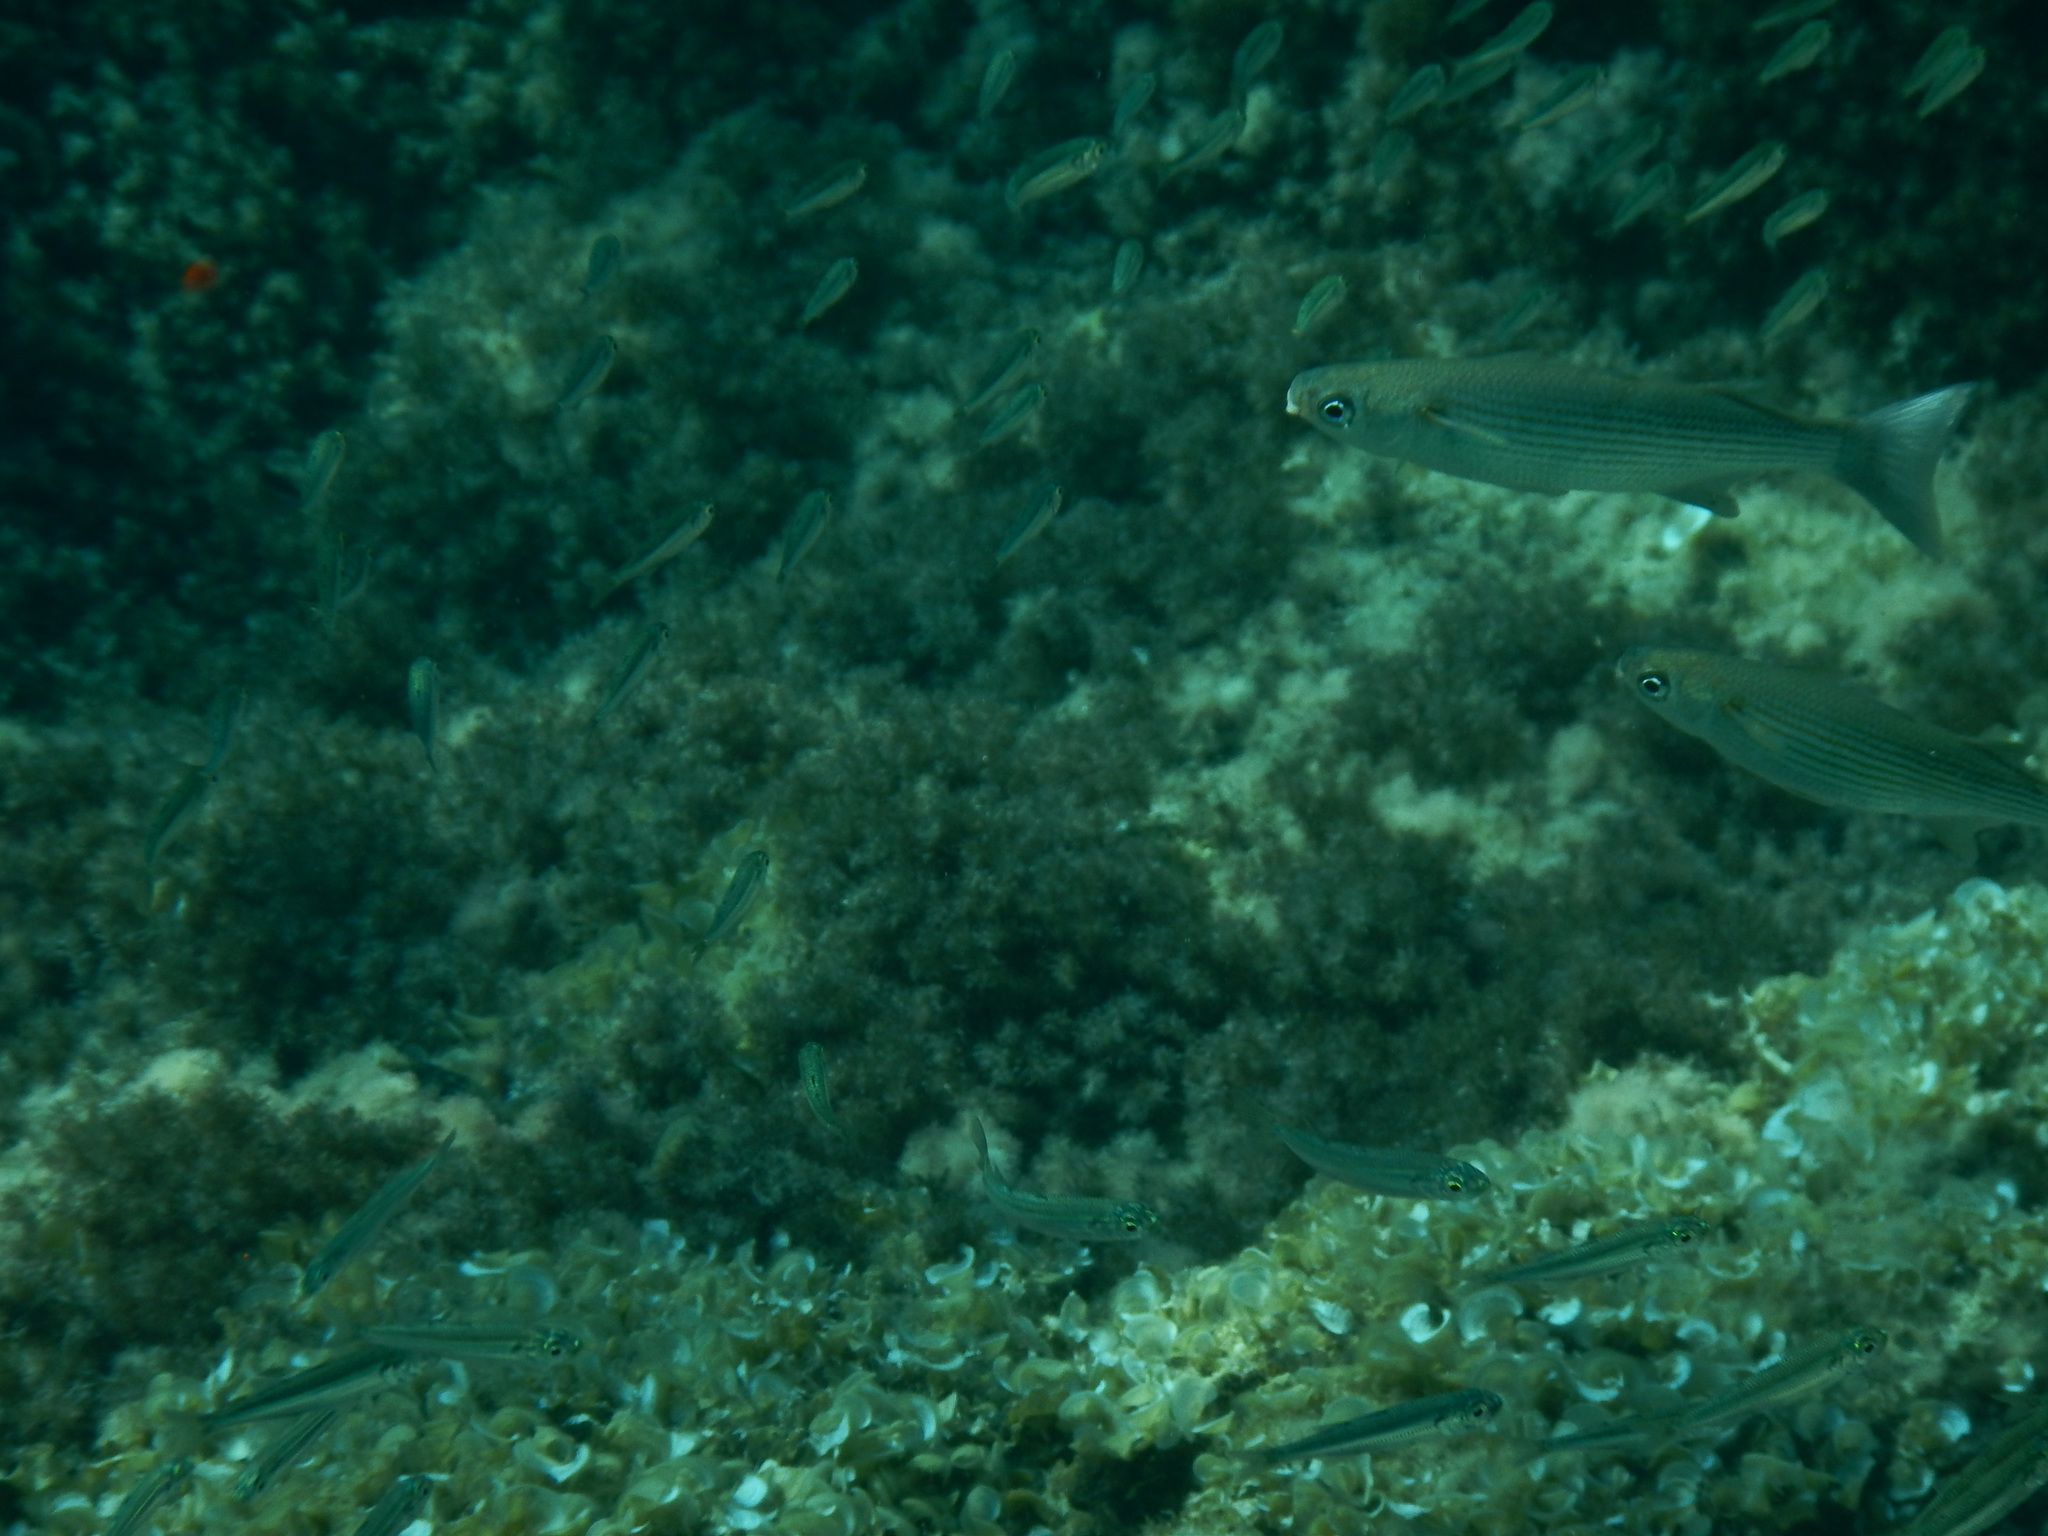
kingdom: Animalia
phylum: Chordata
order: Mugiliformes
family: Mugilidae
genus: Oedalechilus
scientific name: Oedalechilus labeo
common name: Boxlip mullet
